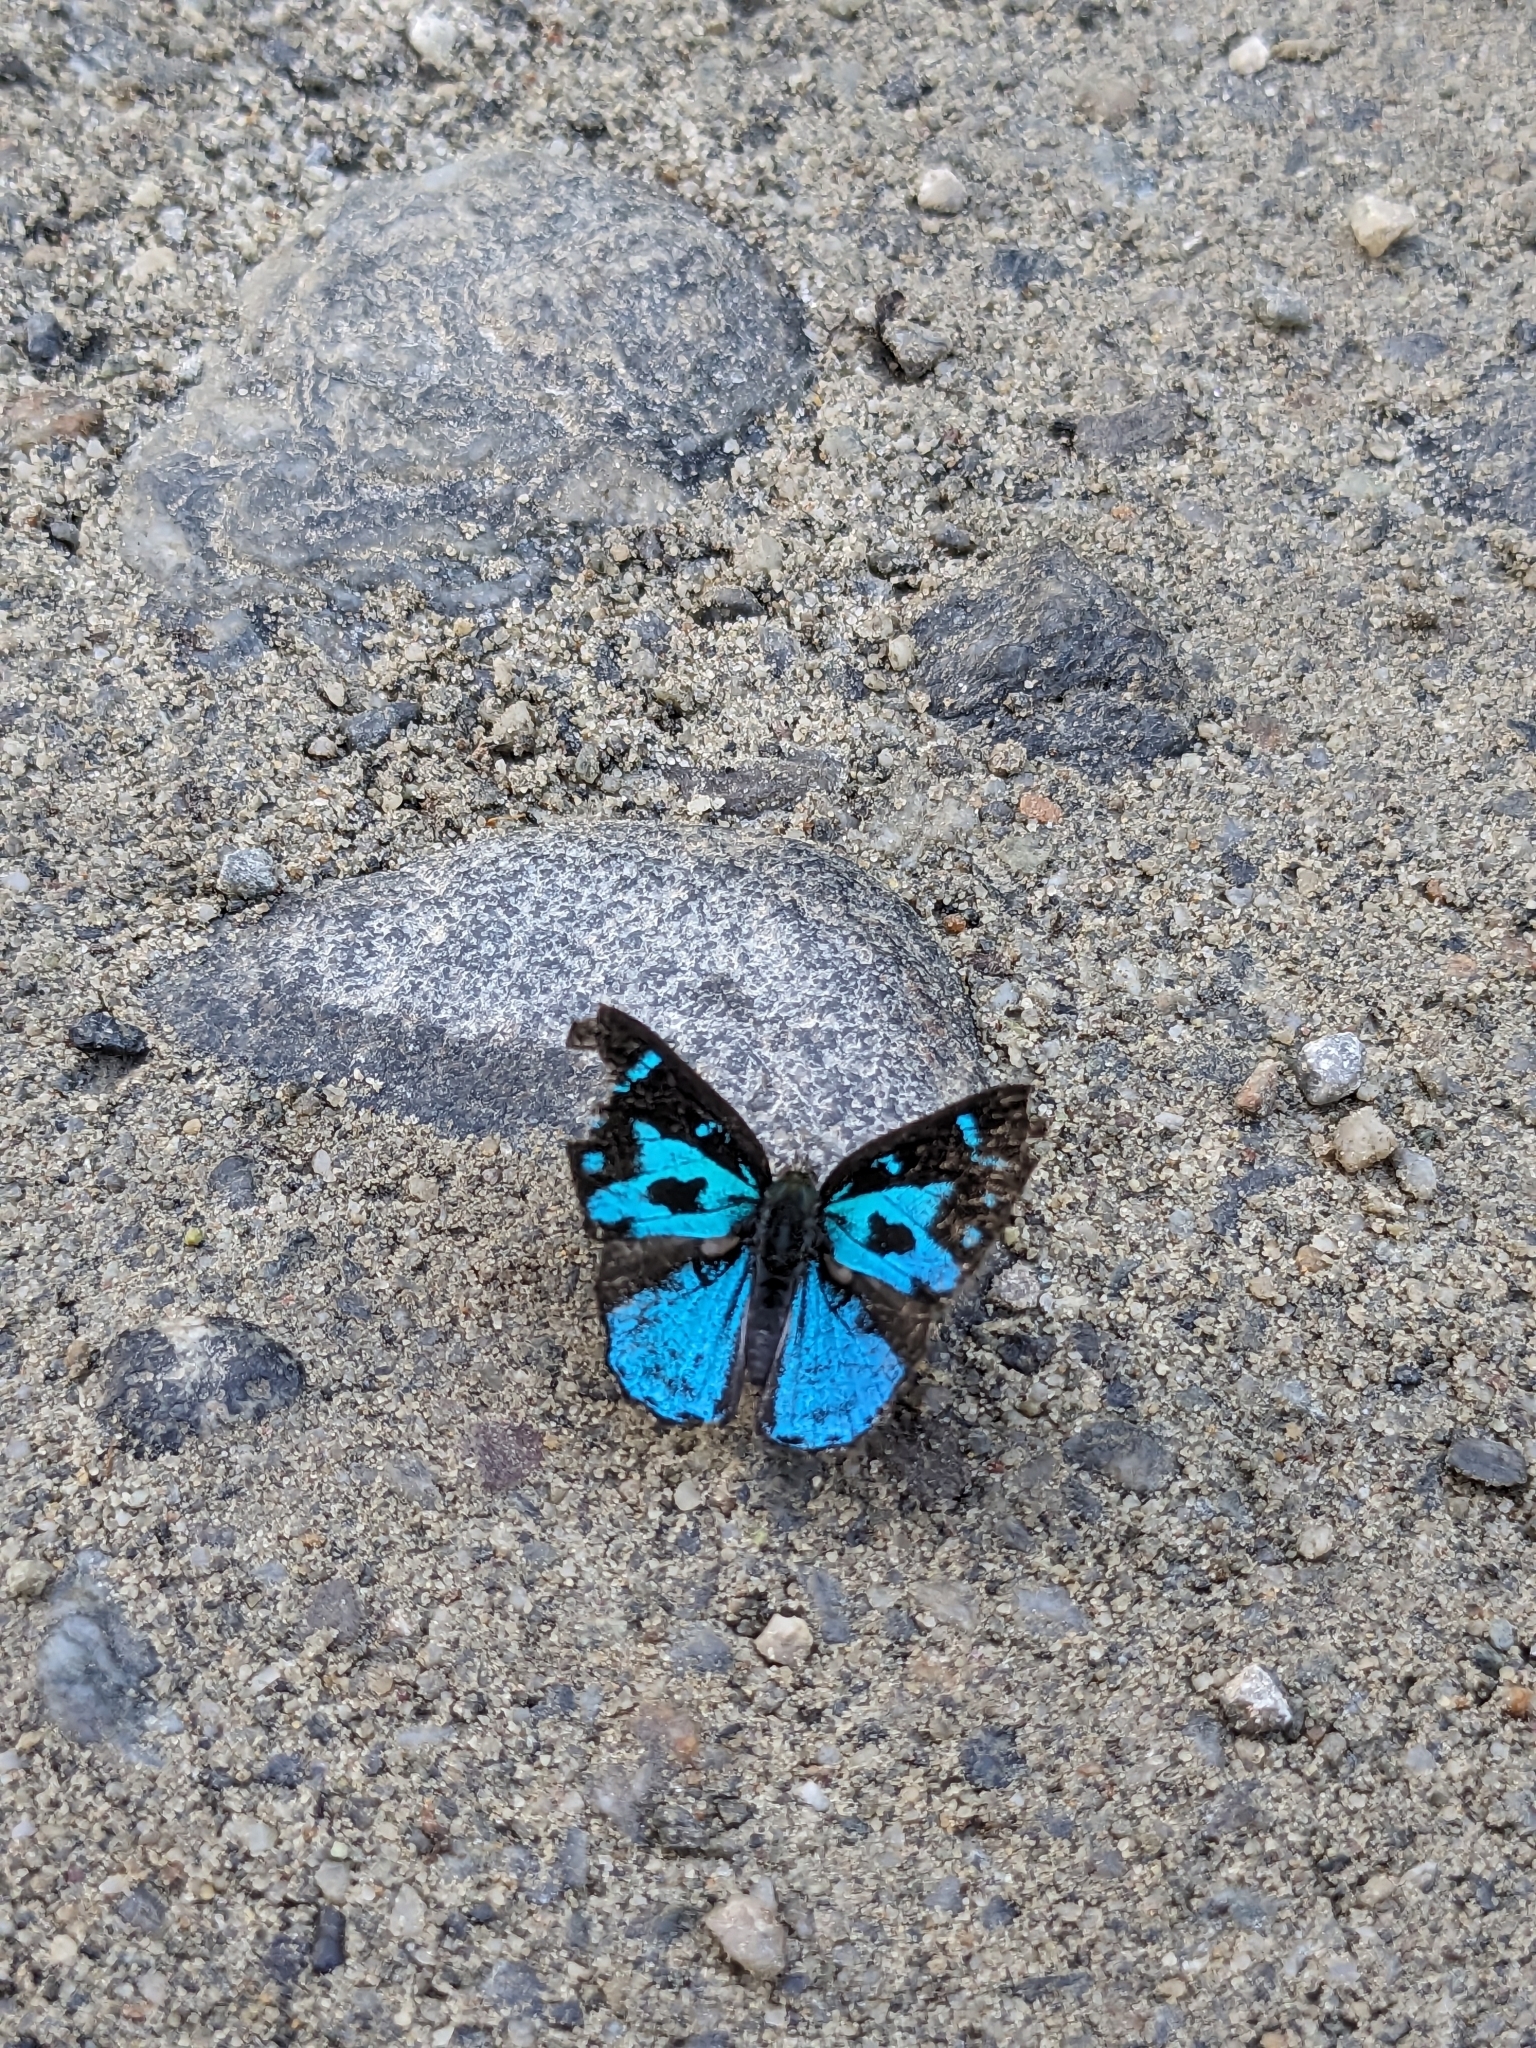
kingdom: Animalia
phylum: Arthropoda
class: Insecta
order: Lepidoptera
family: Lycaenidae
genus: Poritia
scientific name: Poritia hewitsoni
